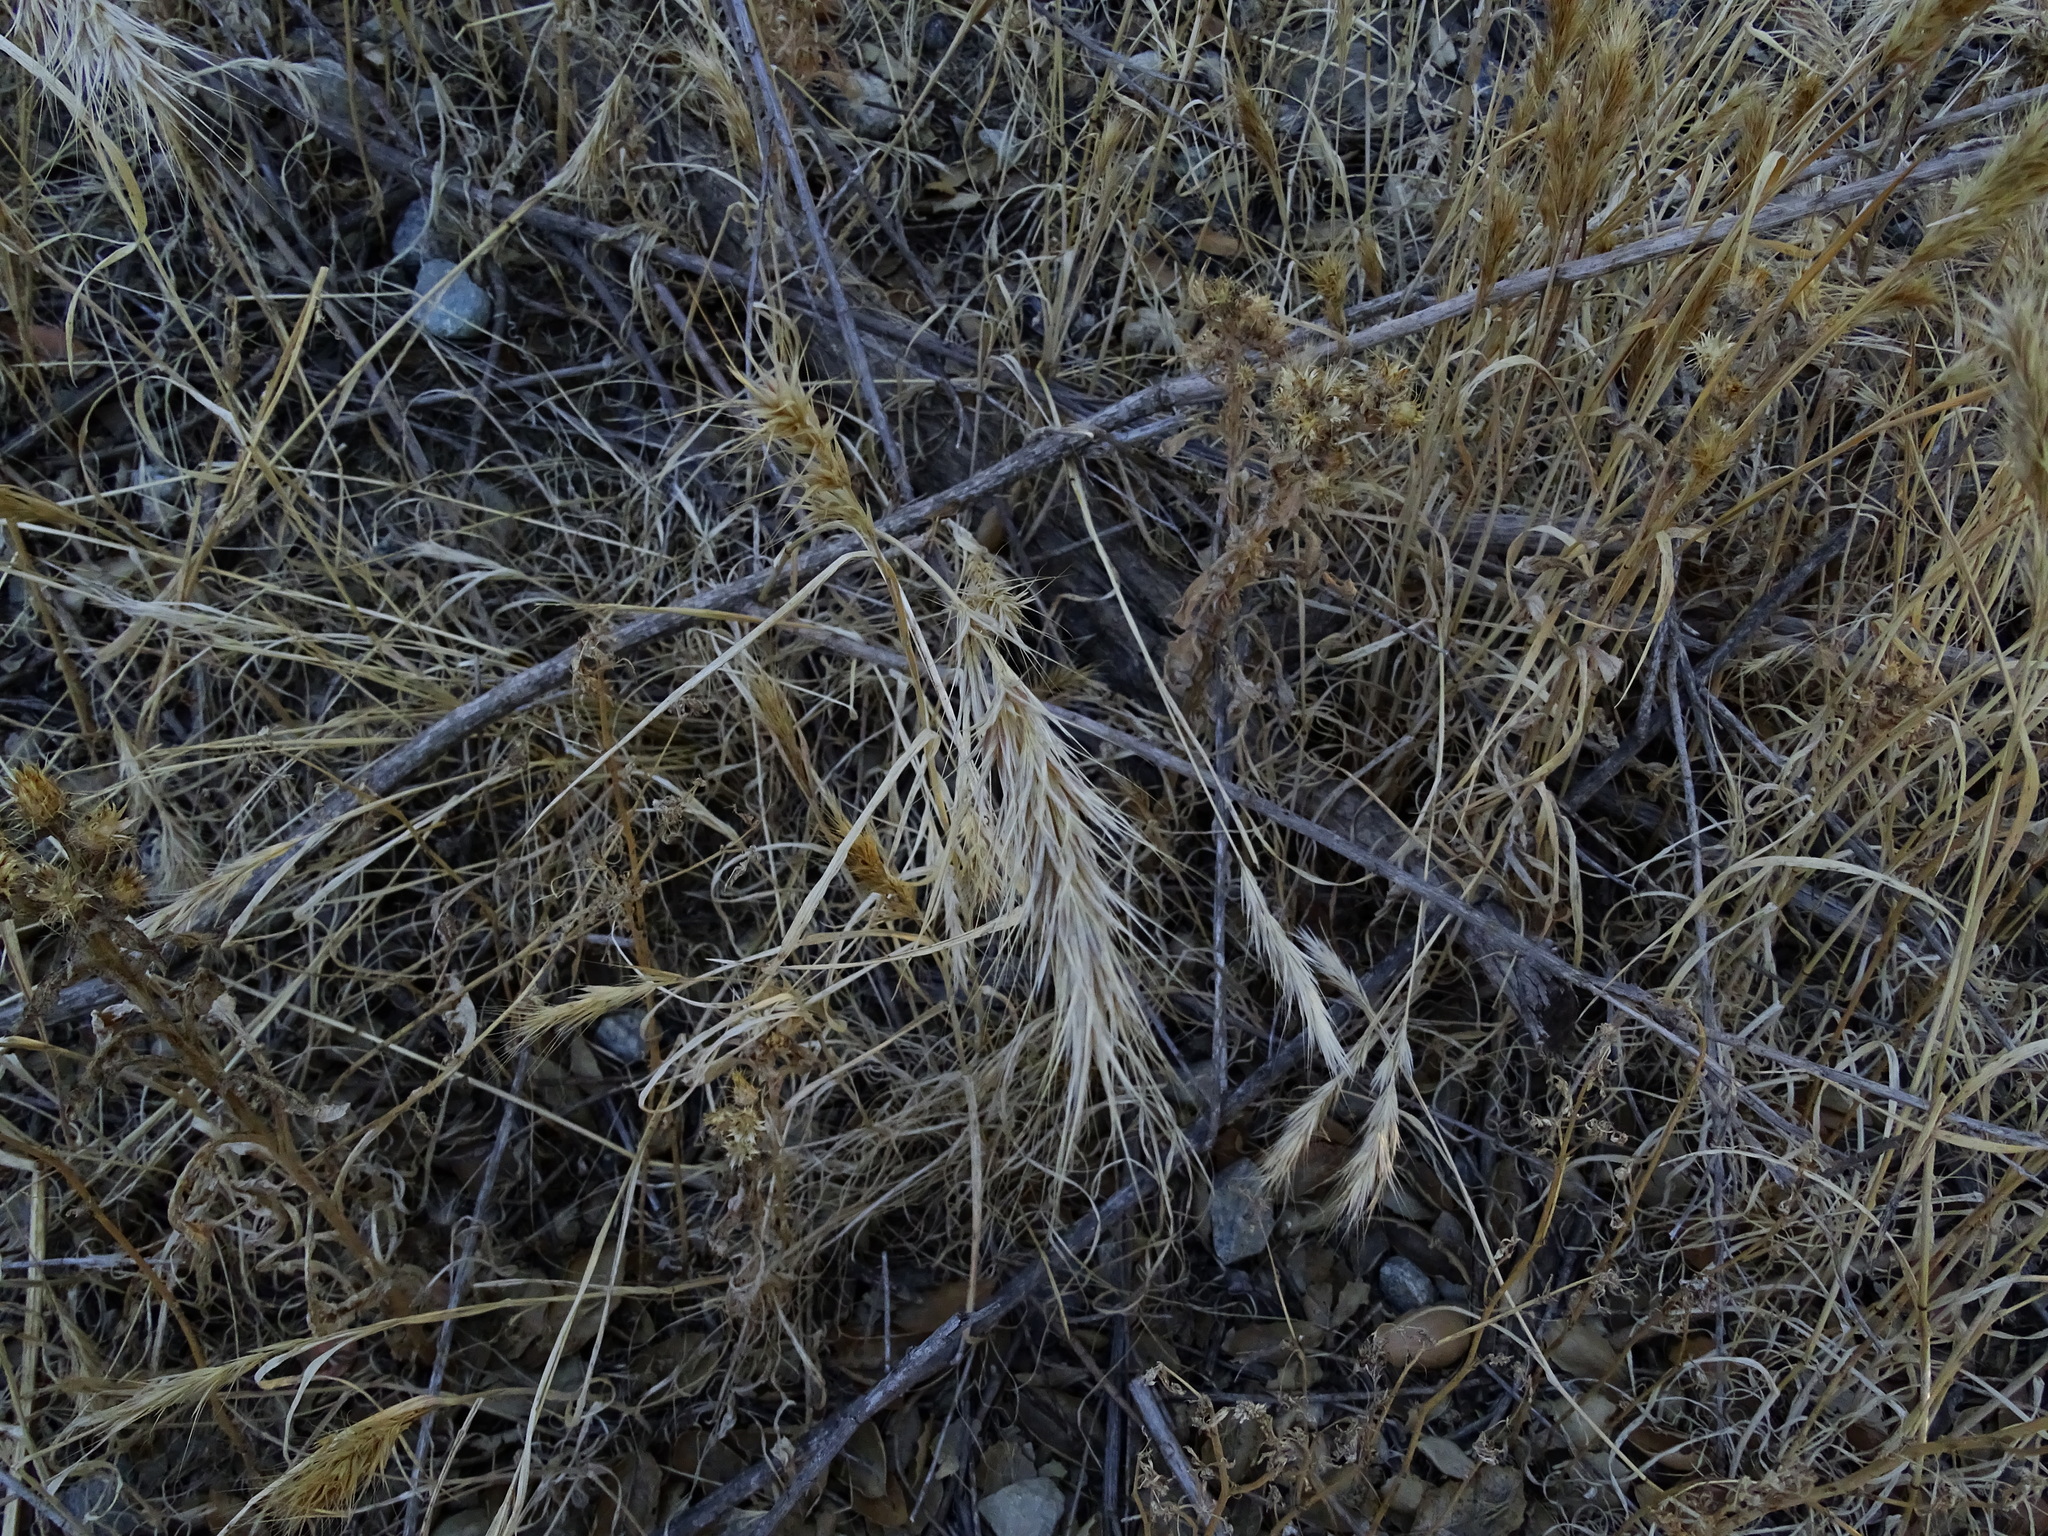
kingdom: Plantae
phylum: Tracheophyta
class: Liliopsida
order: Poales
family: Poaceae
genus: Bromus
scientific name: Bromus madritensis
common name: Compact brome
